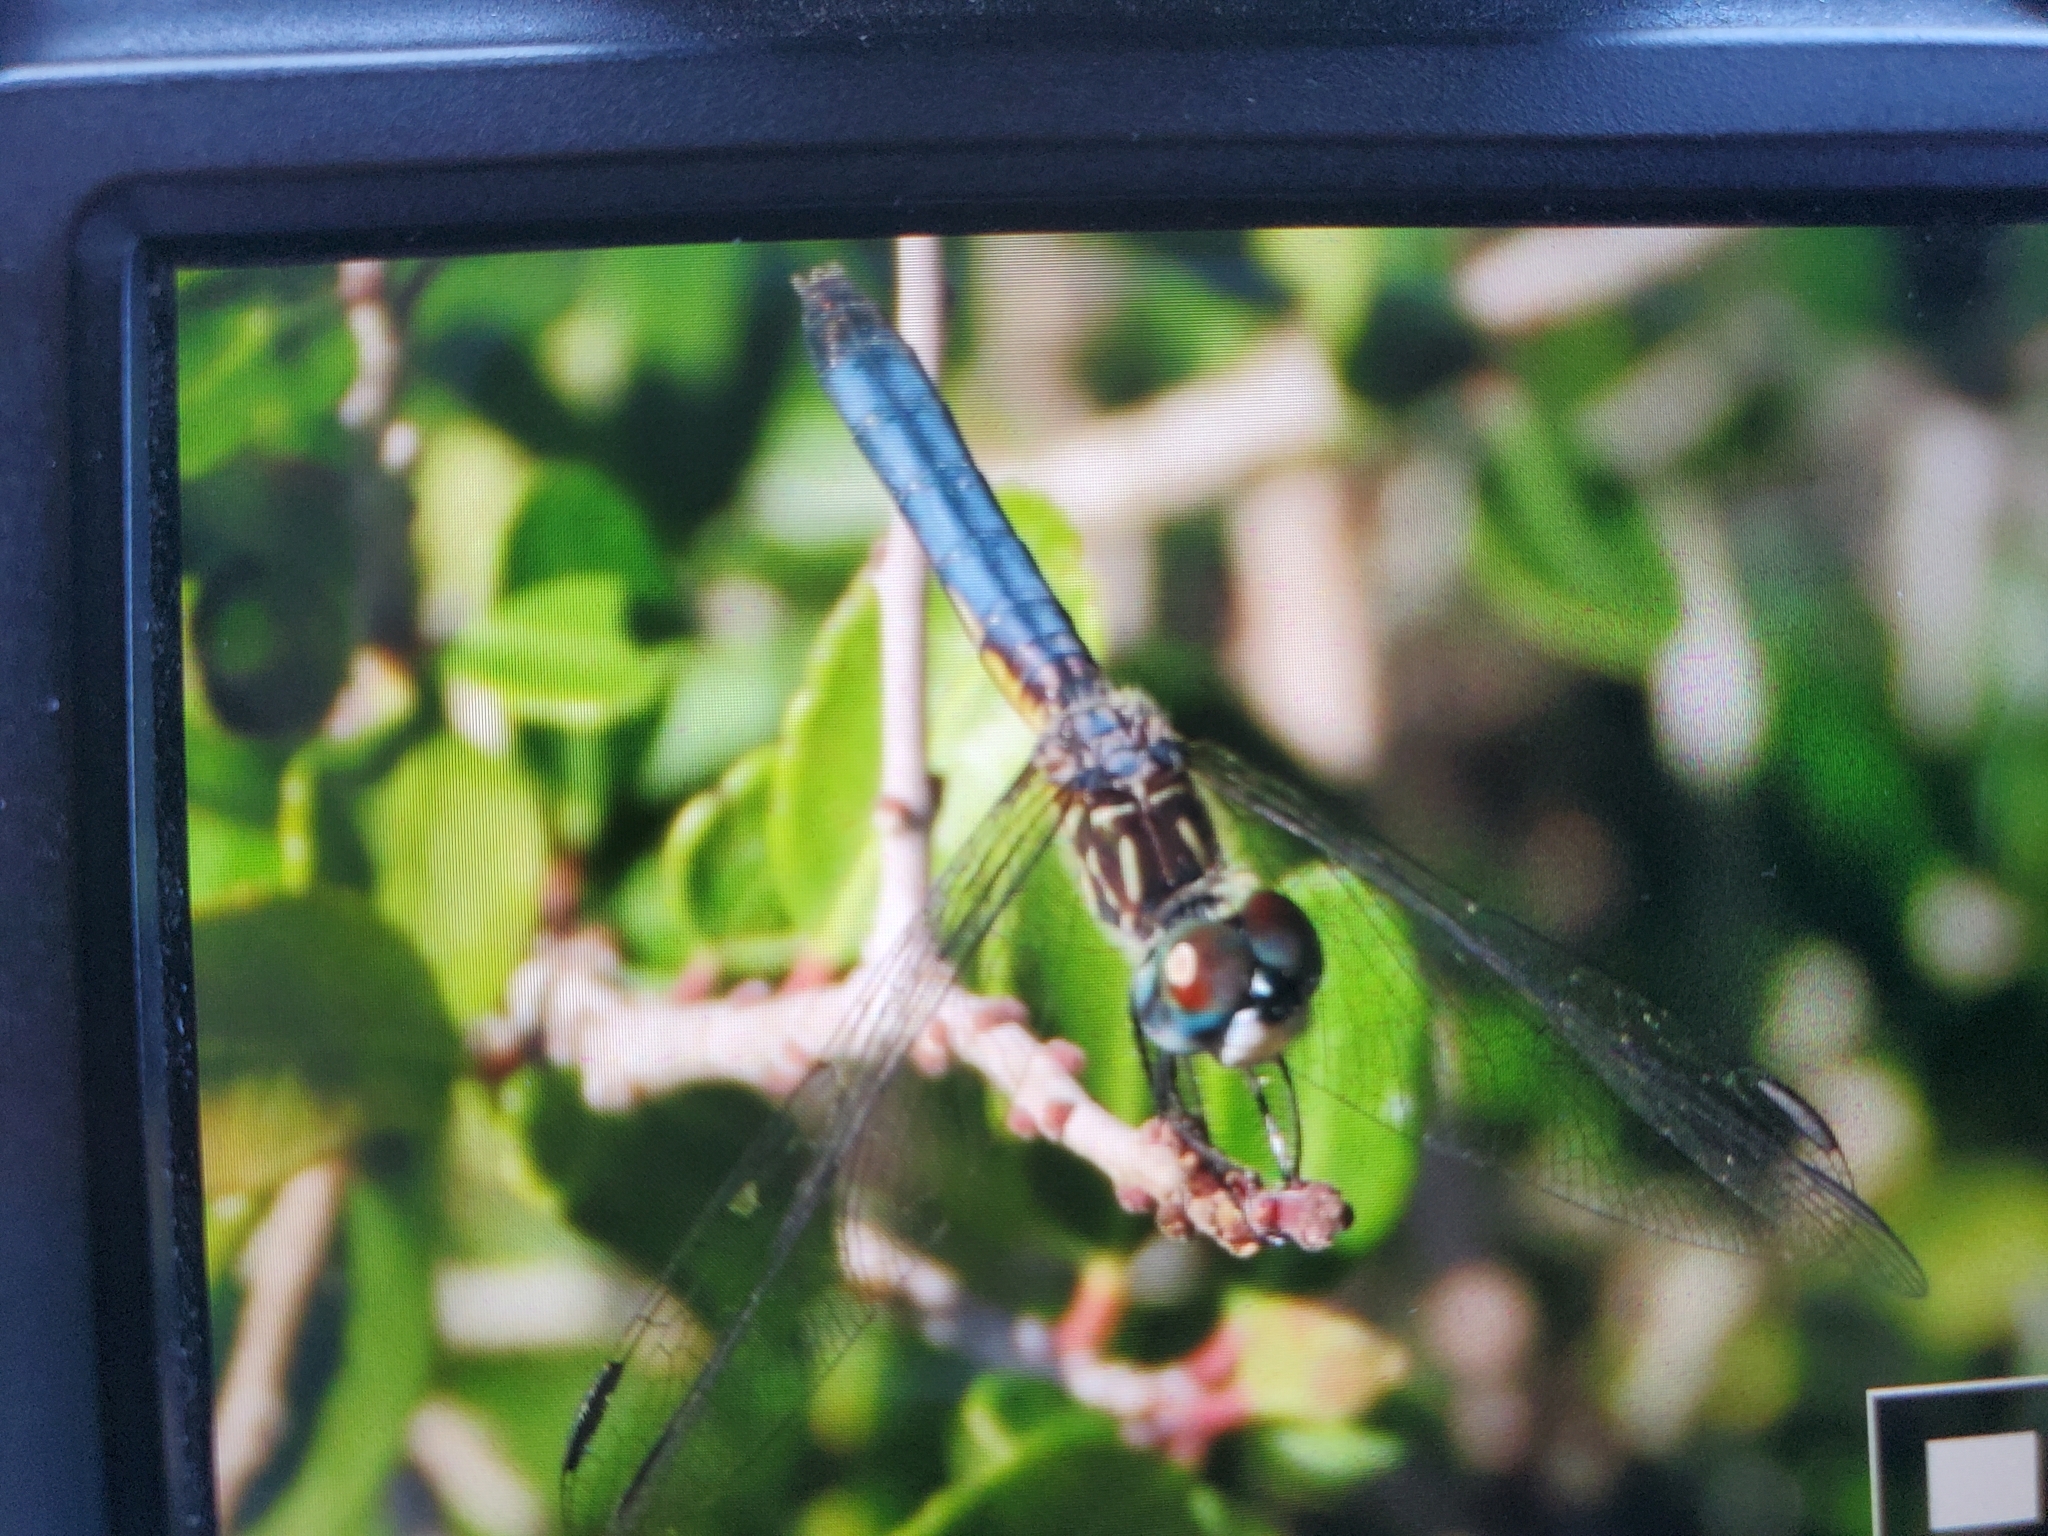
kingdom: Animalia
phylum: Arthropoda
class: Insecta
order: Odonata
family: Libellulidae
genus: Pachydiplax
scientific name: Pachydiplax longipennis
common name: Blue dasher
